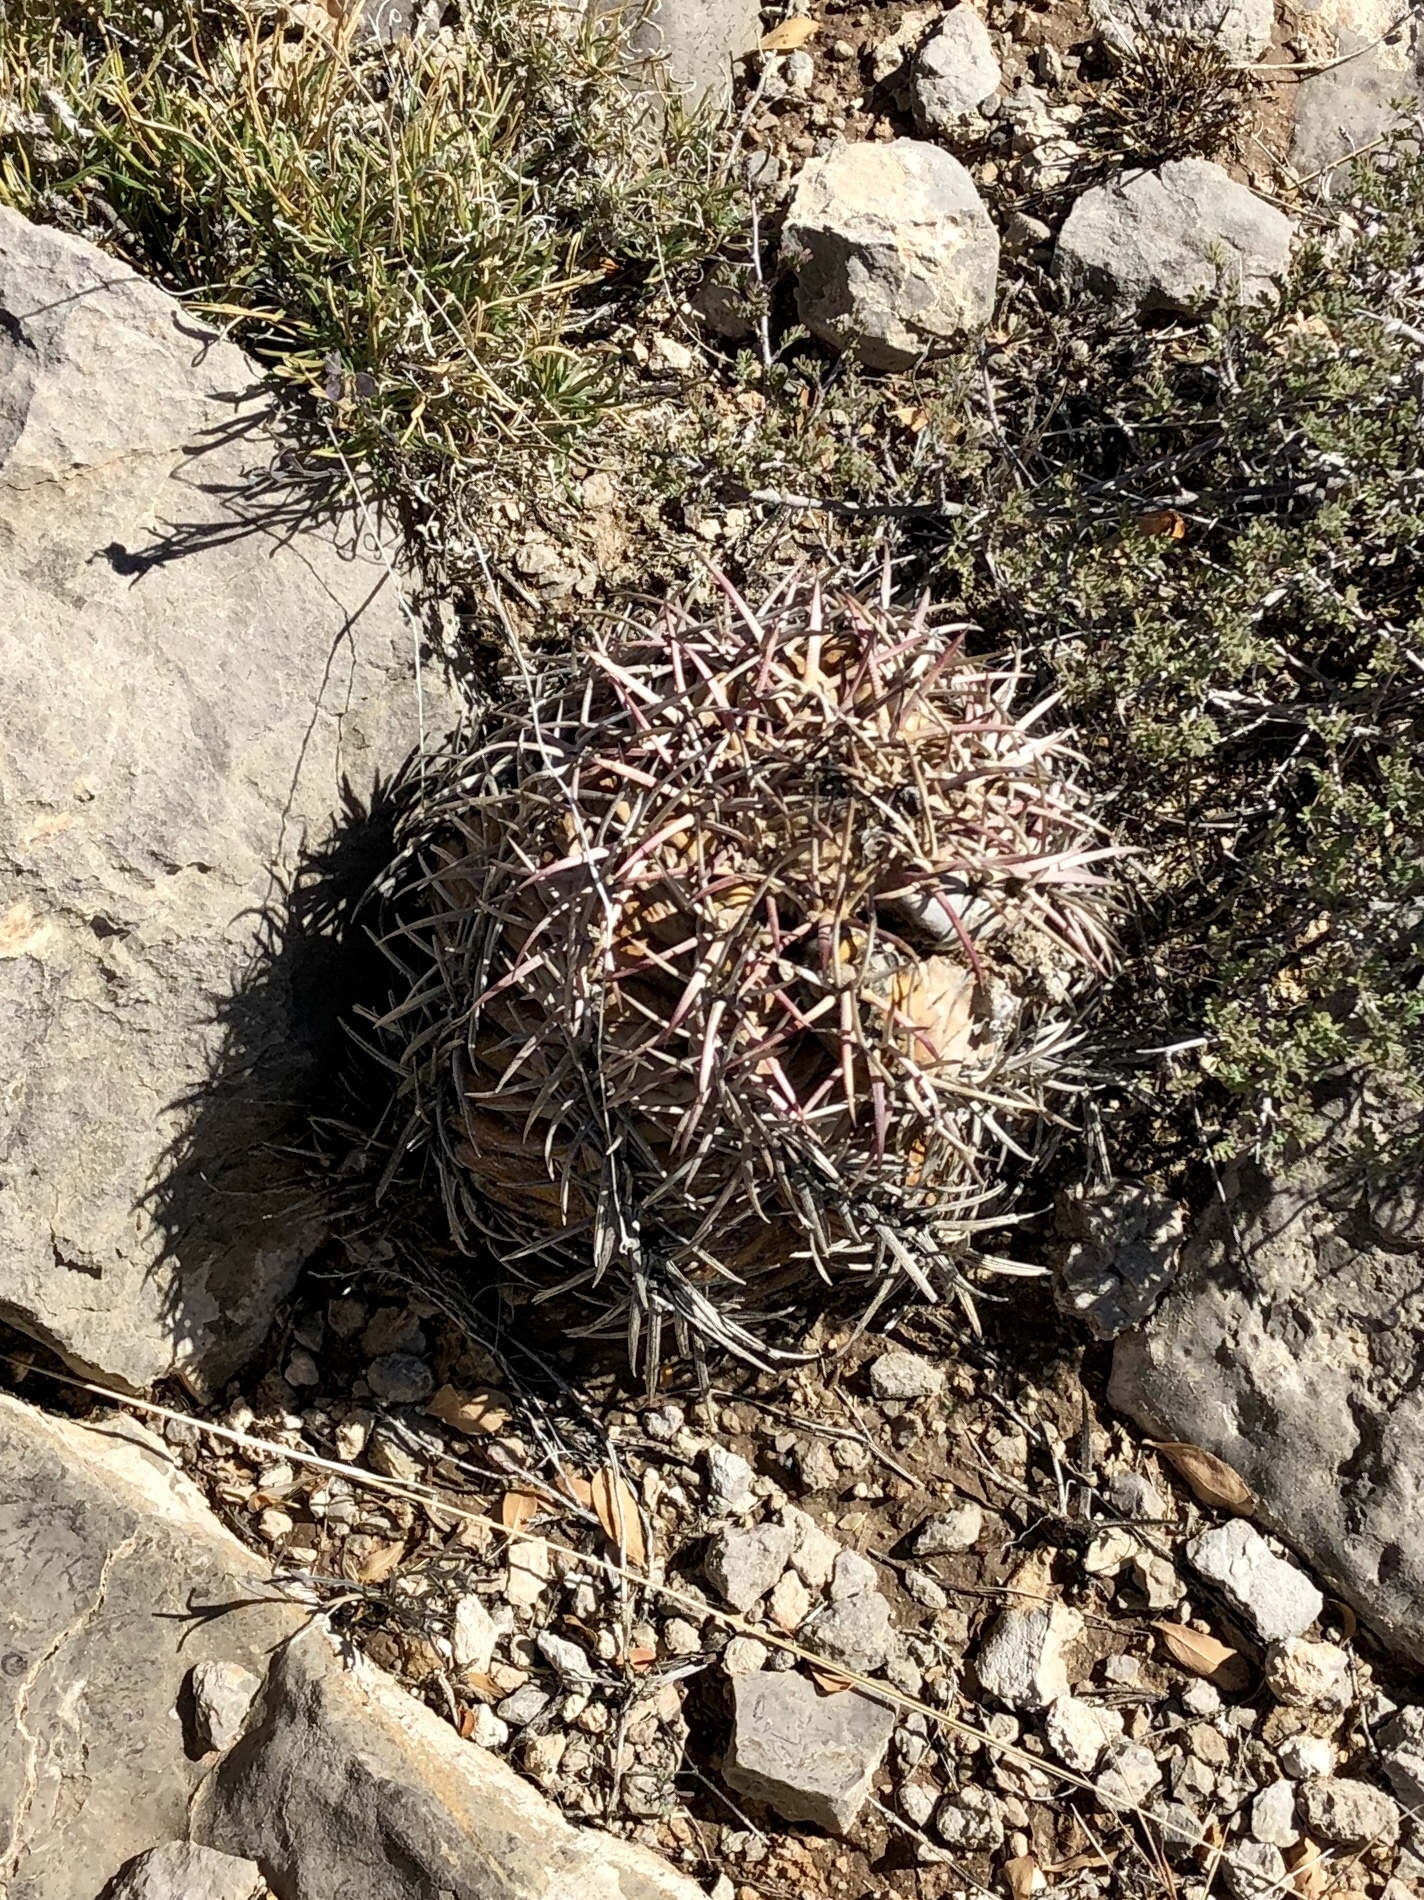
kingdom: Plantae
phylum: Tracheophyta
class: Magnoliopsida
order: Caryophyllales
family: Cactaceae
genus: Echinocactus
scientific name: Echinocactus horizonthalonius
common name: Devilshead
